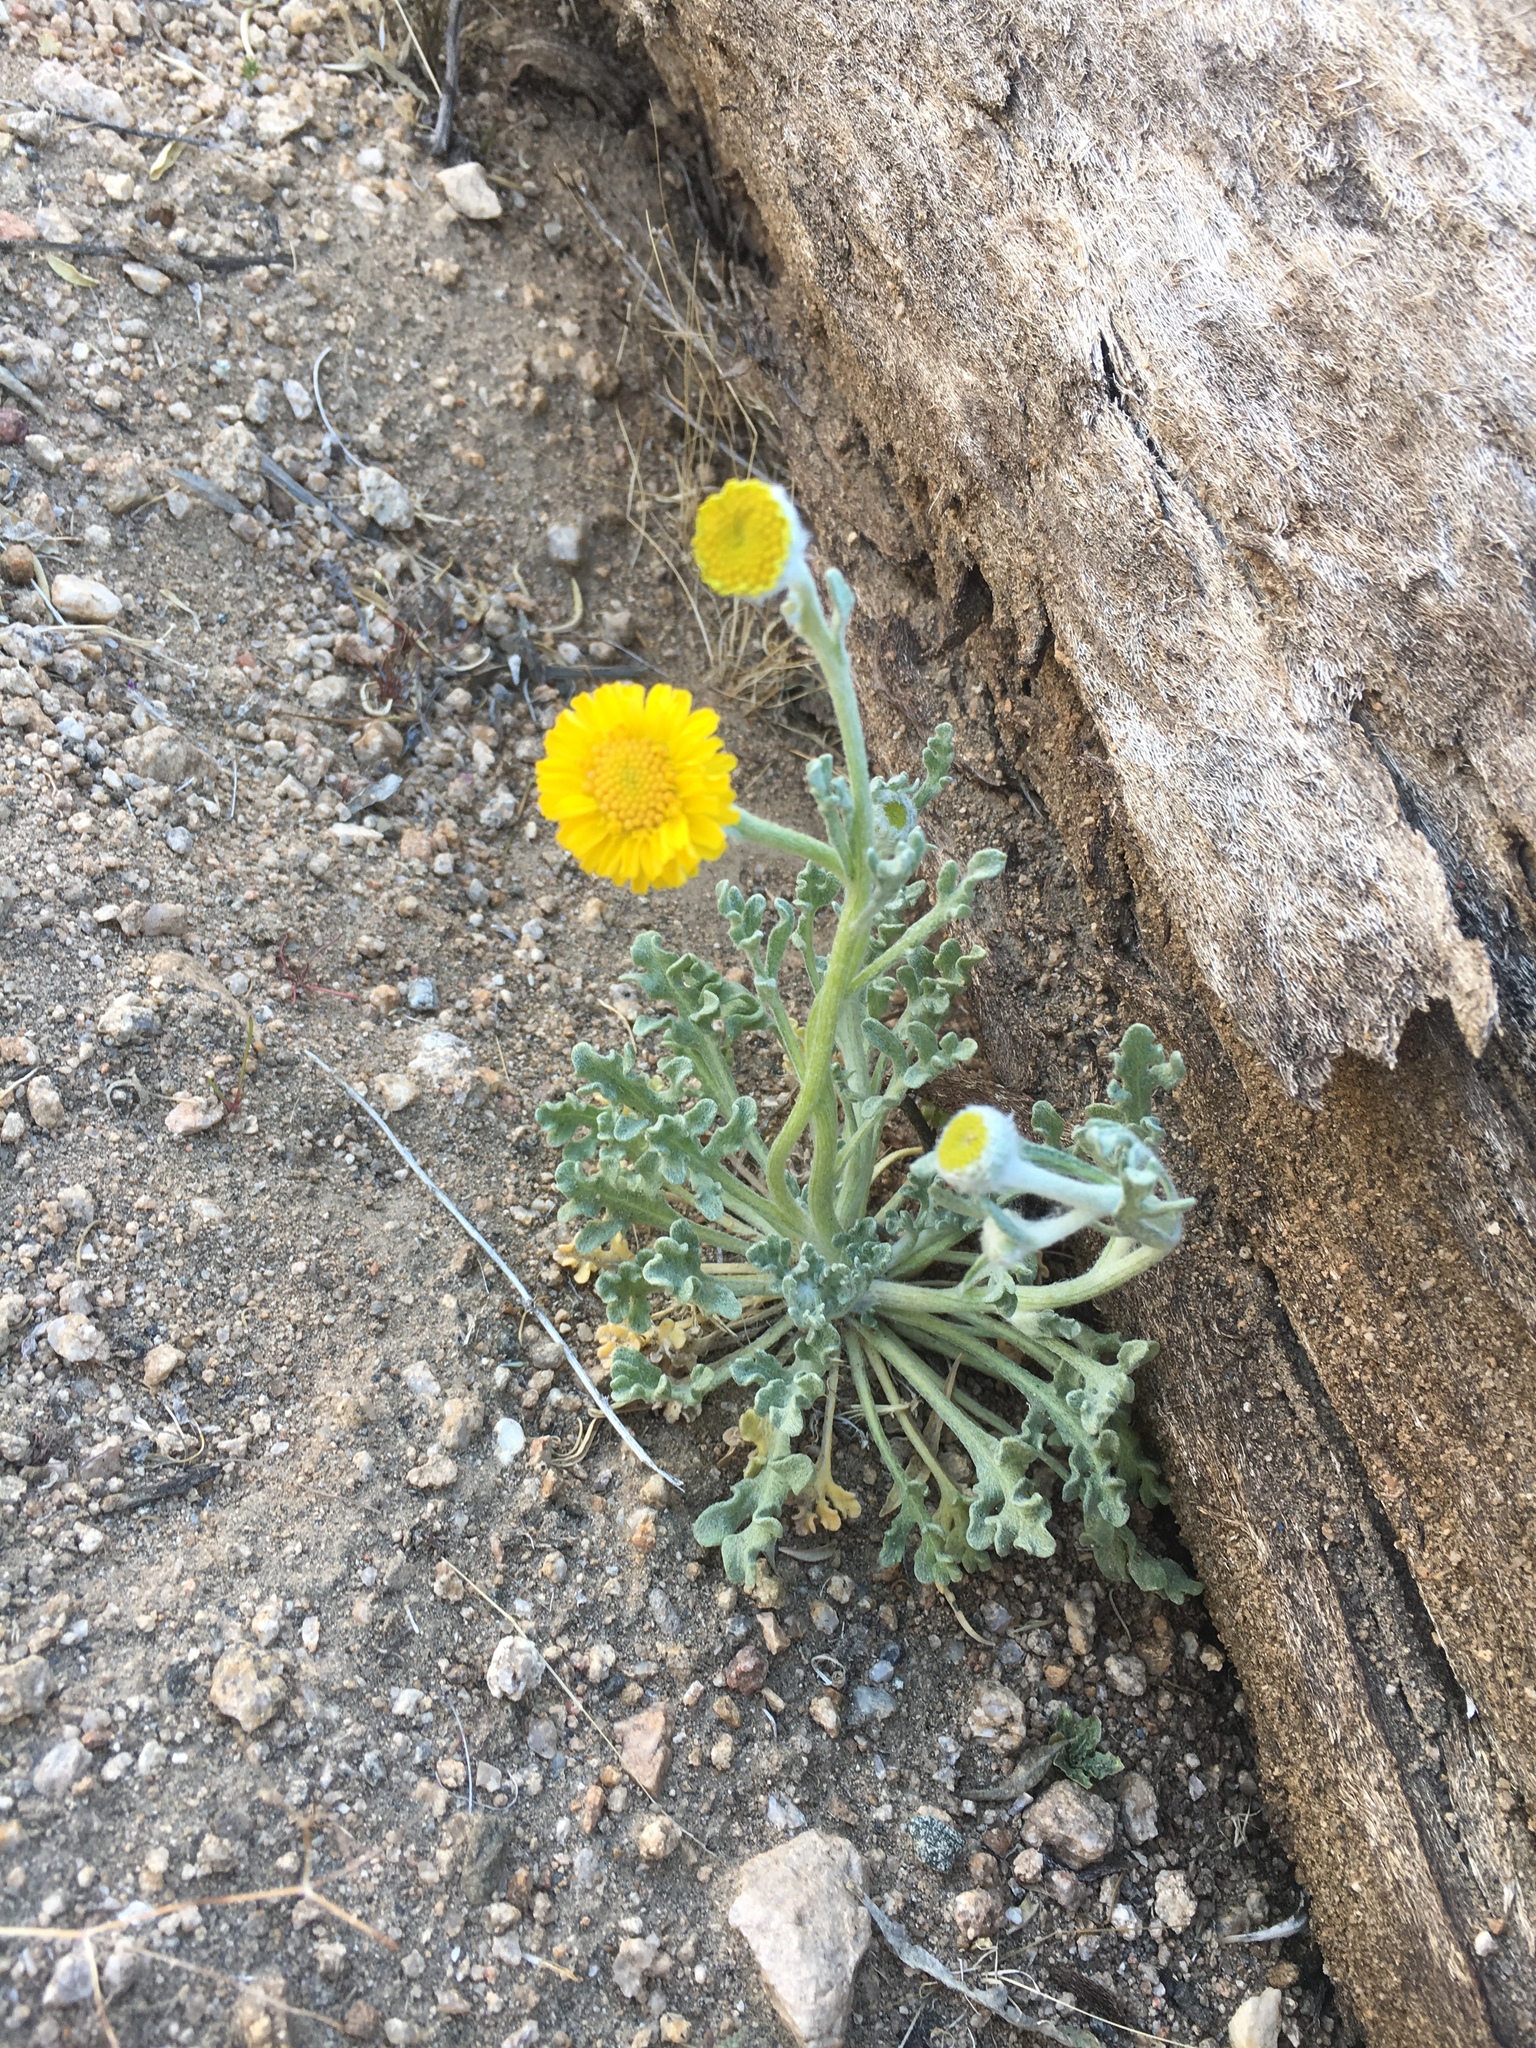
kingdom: Plantae
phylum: Tracheophyta
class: Magnoliopsida
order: Asterales
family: Asteraceae
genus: Baileya
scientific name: Baileya pleniradiata
